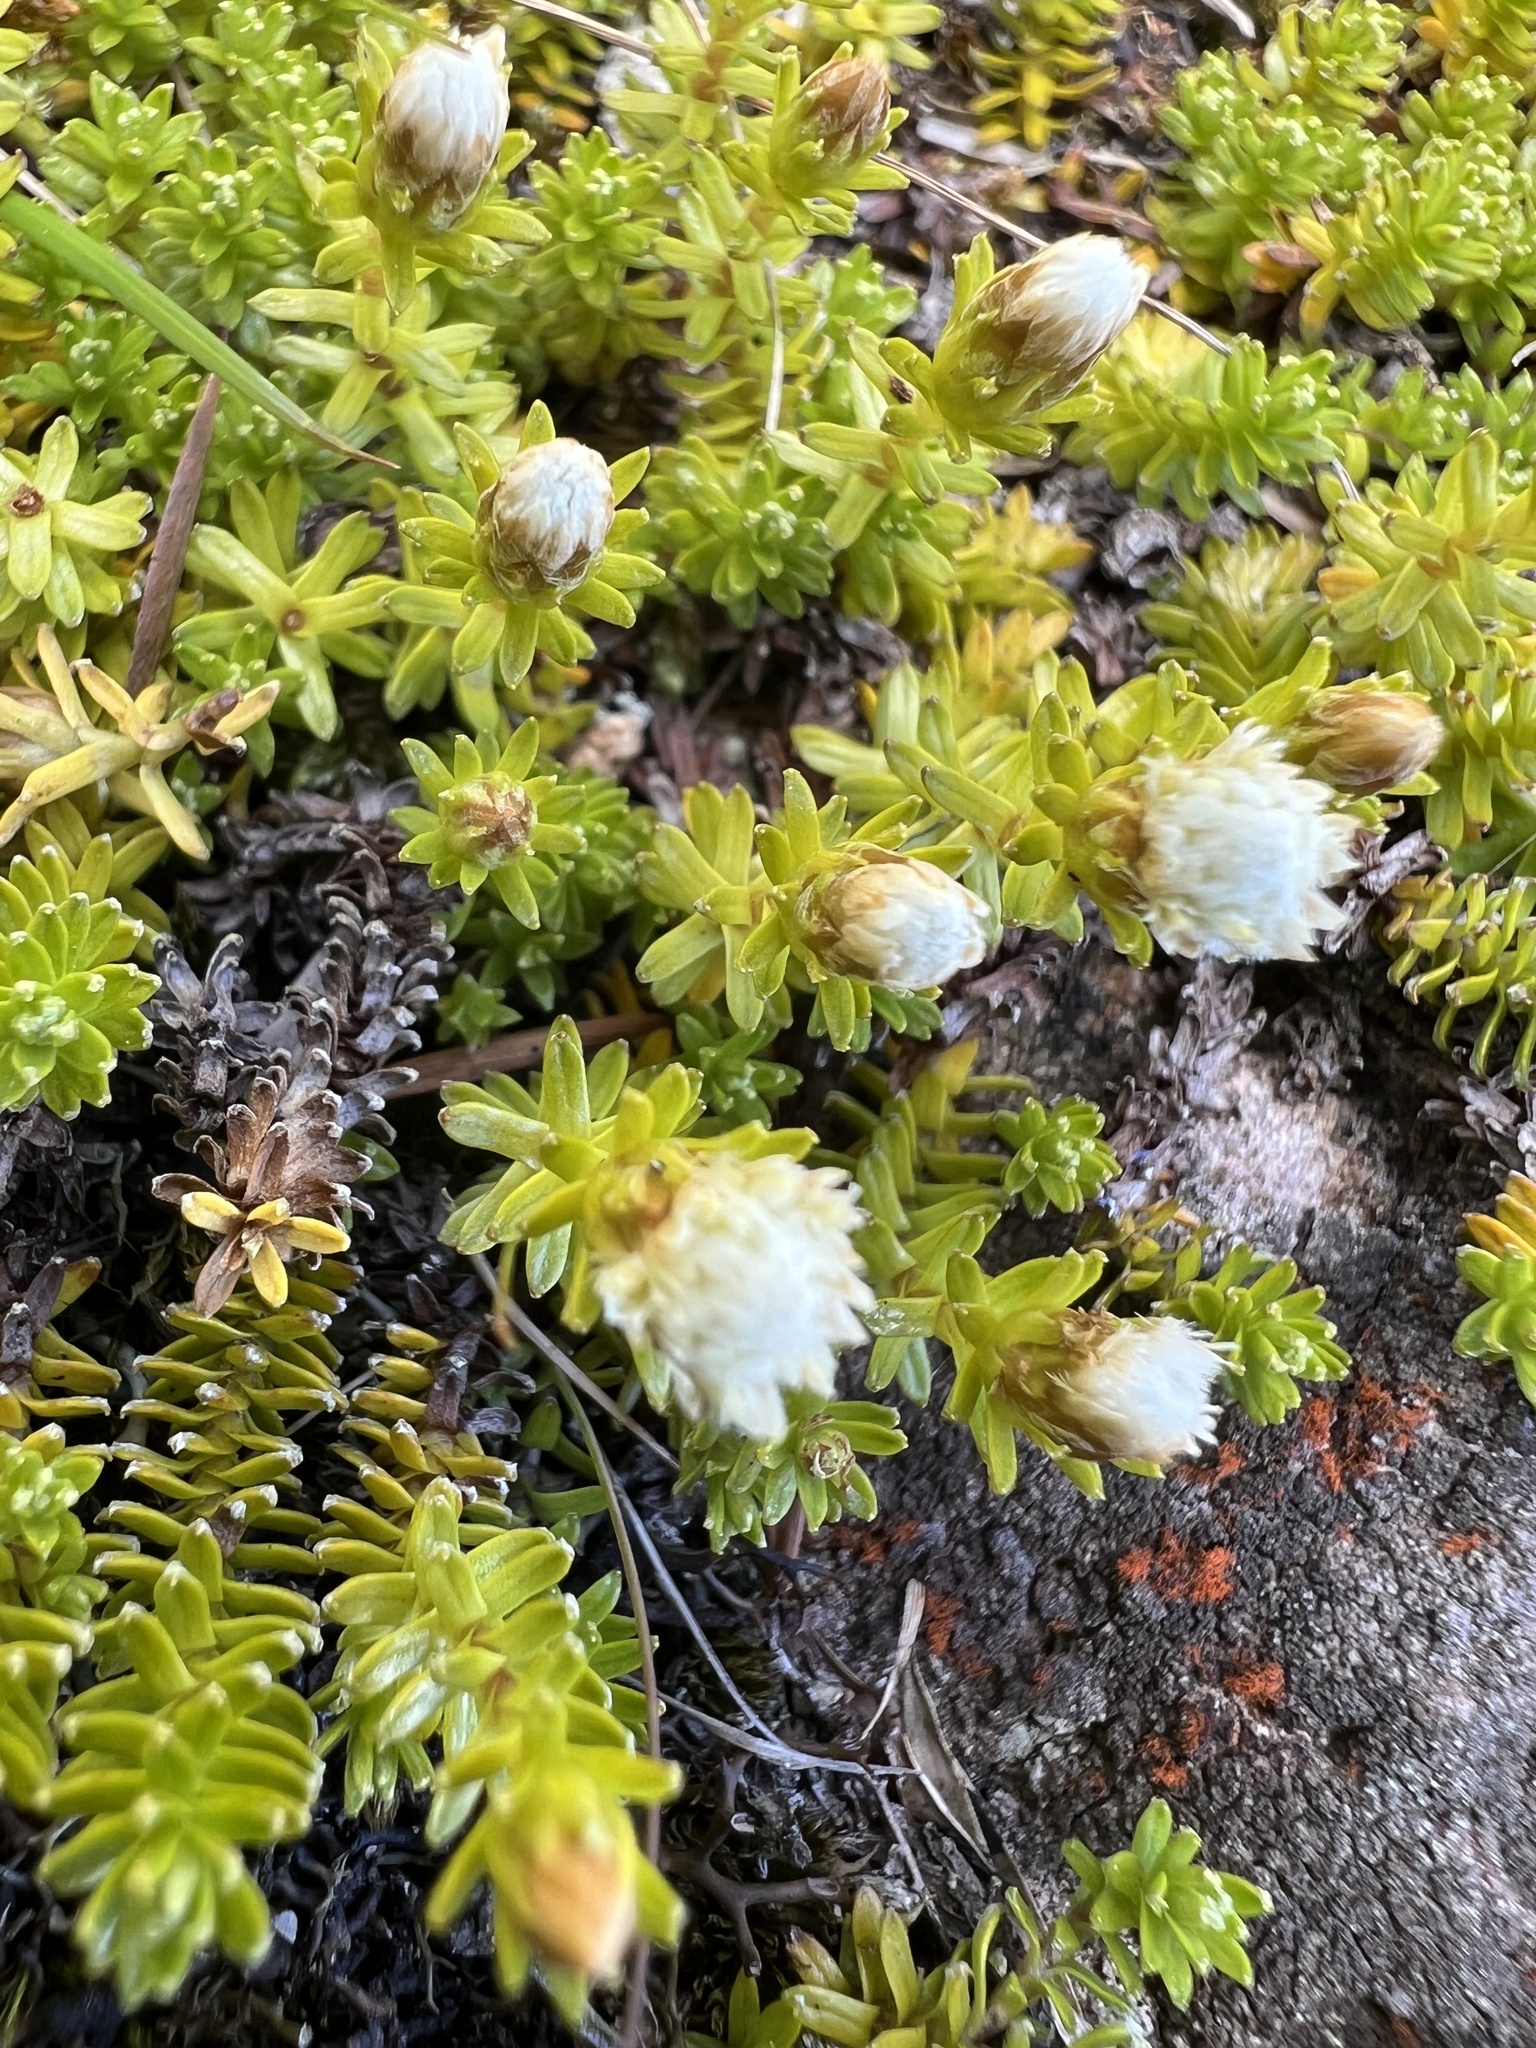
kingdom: Plantae
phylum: Tracheophyta
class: Magnoliopsida
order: Asterales
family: Asteraceae
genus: Raoulia
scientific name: Raoulia glabra
